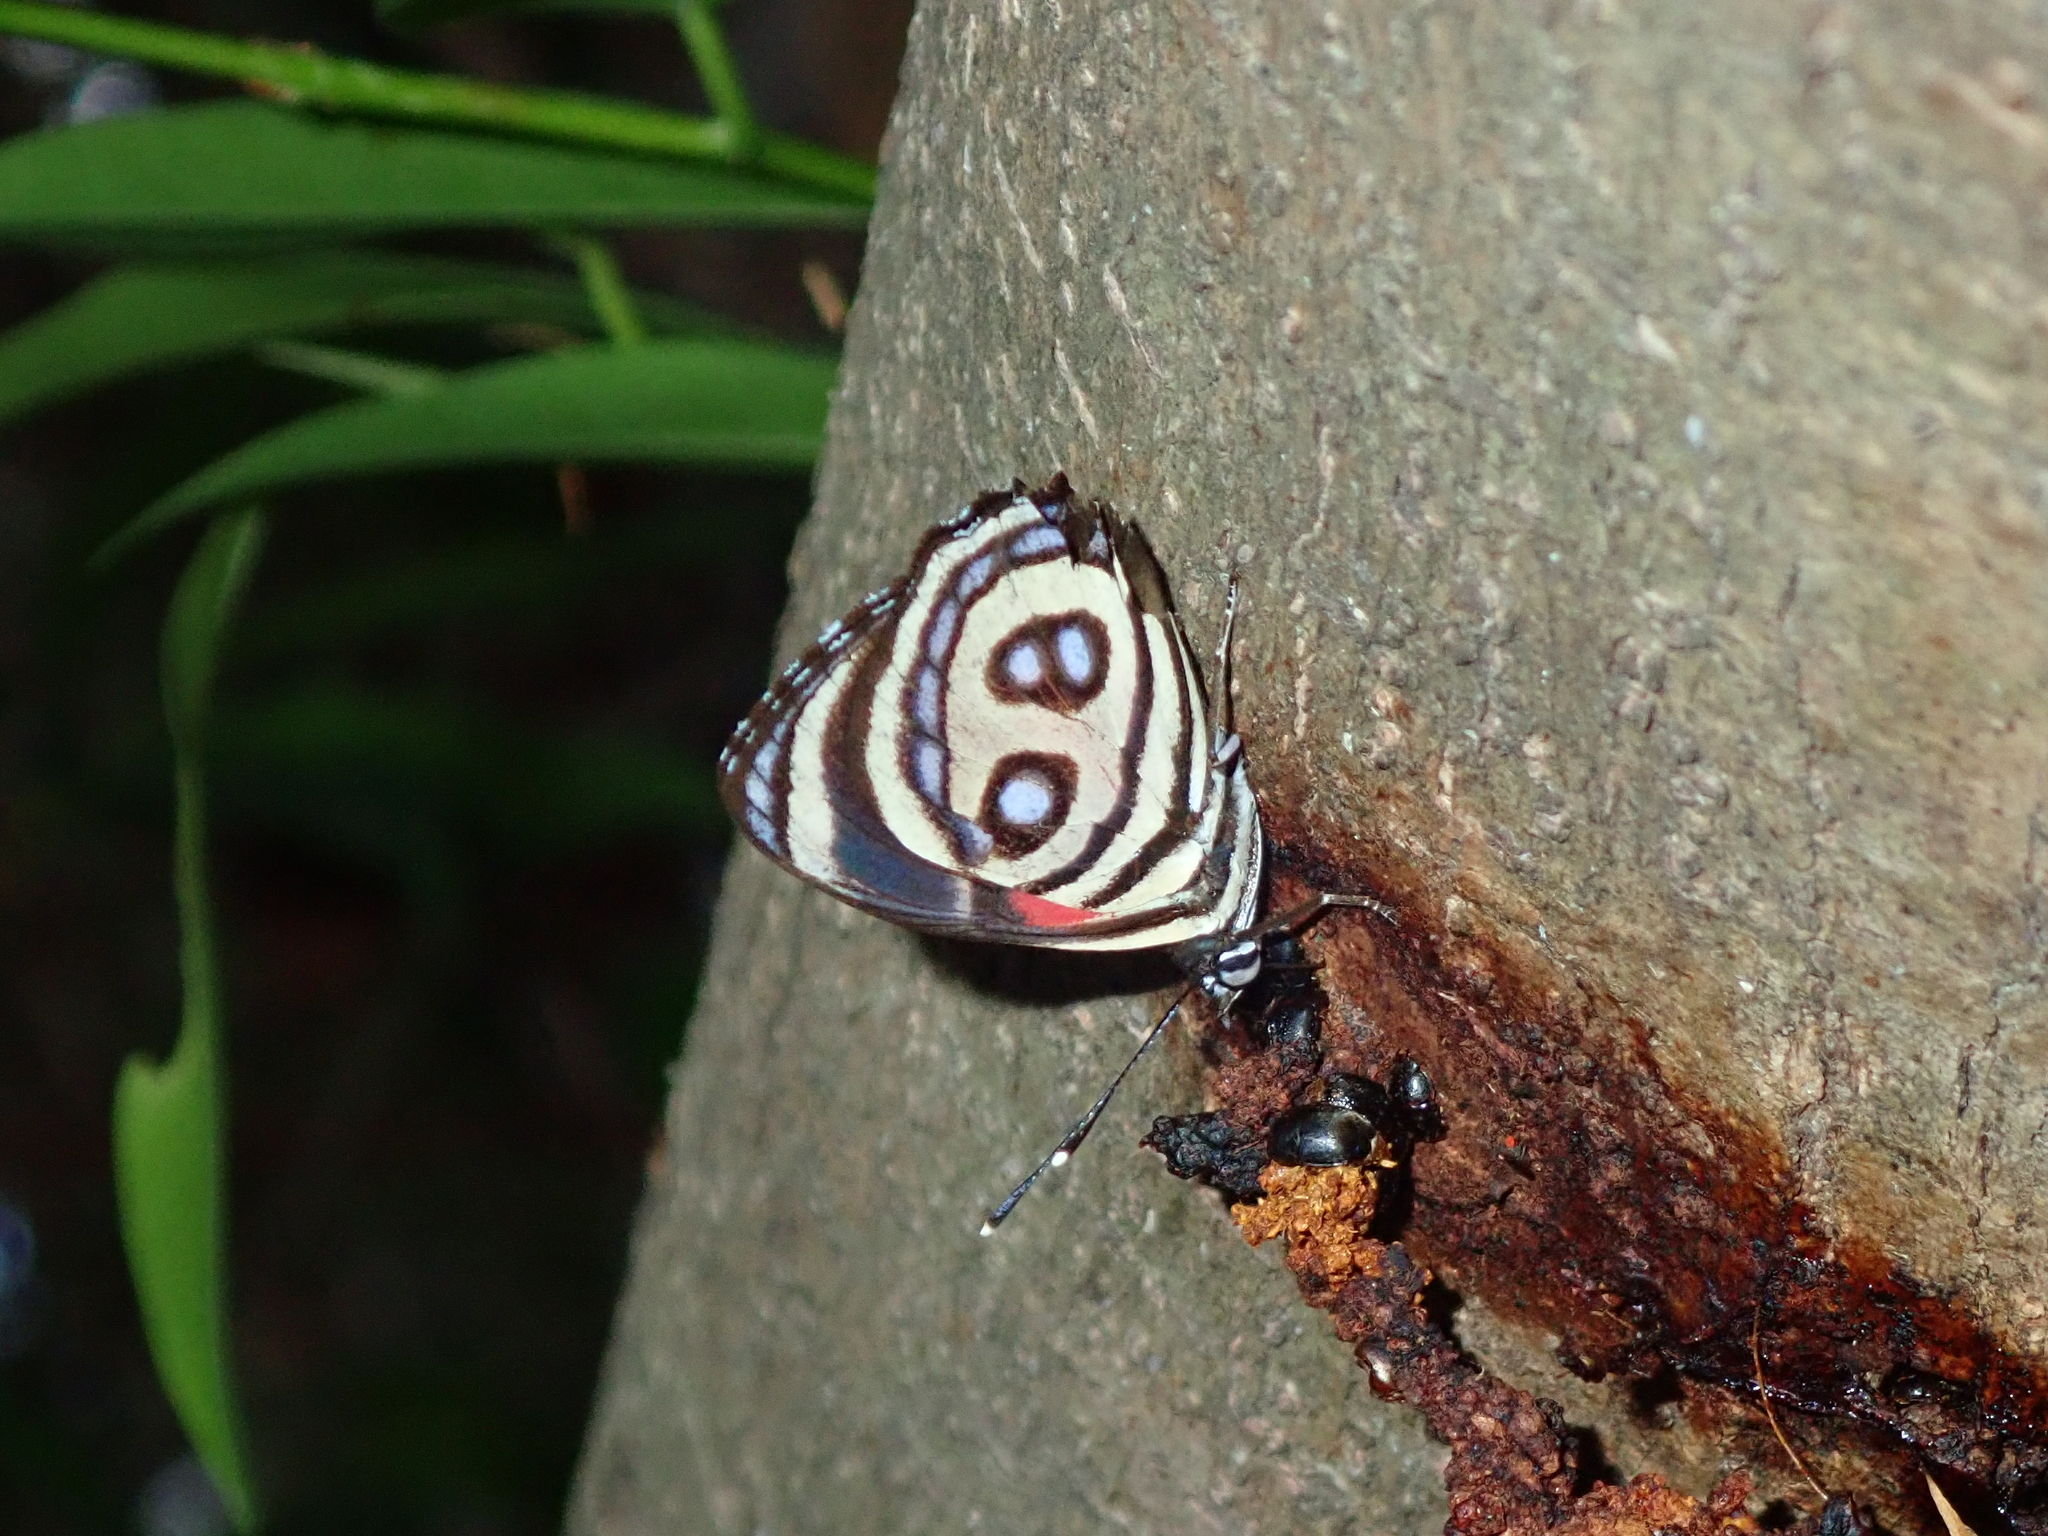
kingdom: Animalia
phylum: Arthropoda
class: Insecta
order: Lepidoptera
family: Nymphalidae
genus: Catagramma
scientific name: Catagramma pyracmon
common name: Google-eyed eighty-eight
